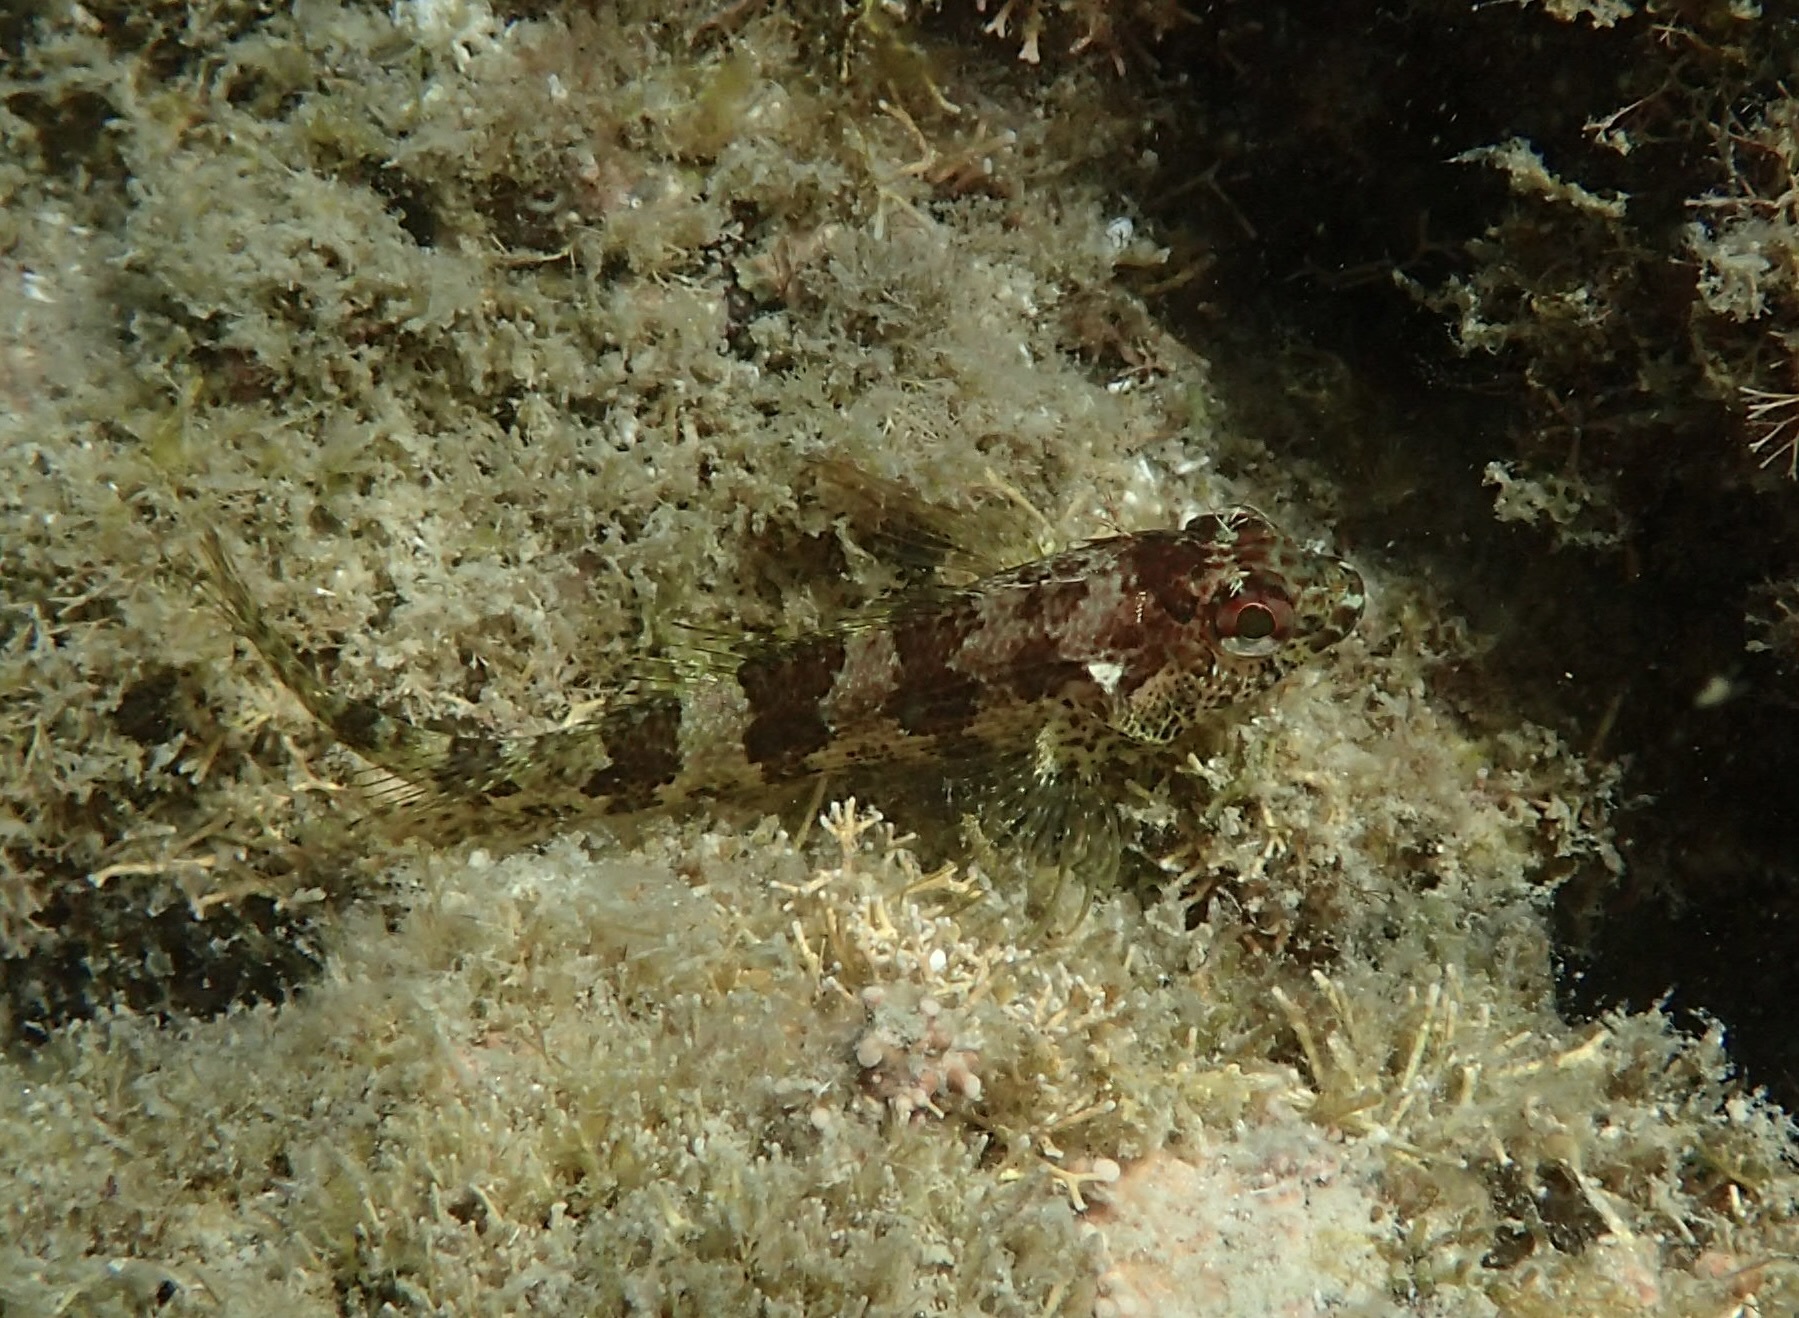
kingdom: Animalia
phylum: Chordata
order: Perciformes
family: Labrisomidae
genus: Labrisomus
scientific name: Labrisomus xanti
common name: Largemouth blenny
